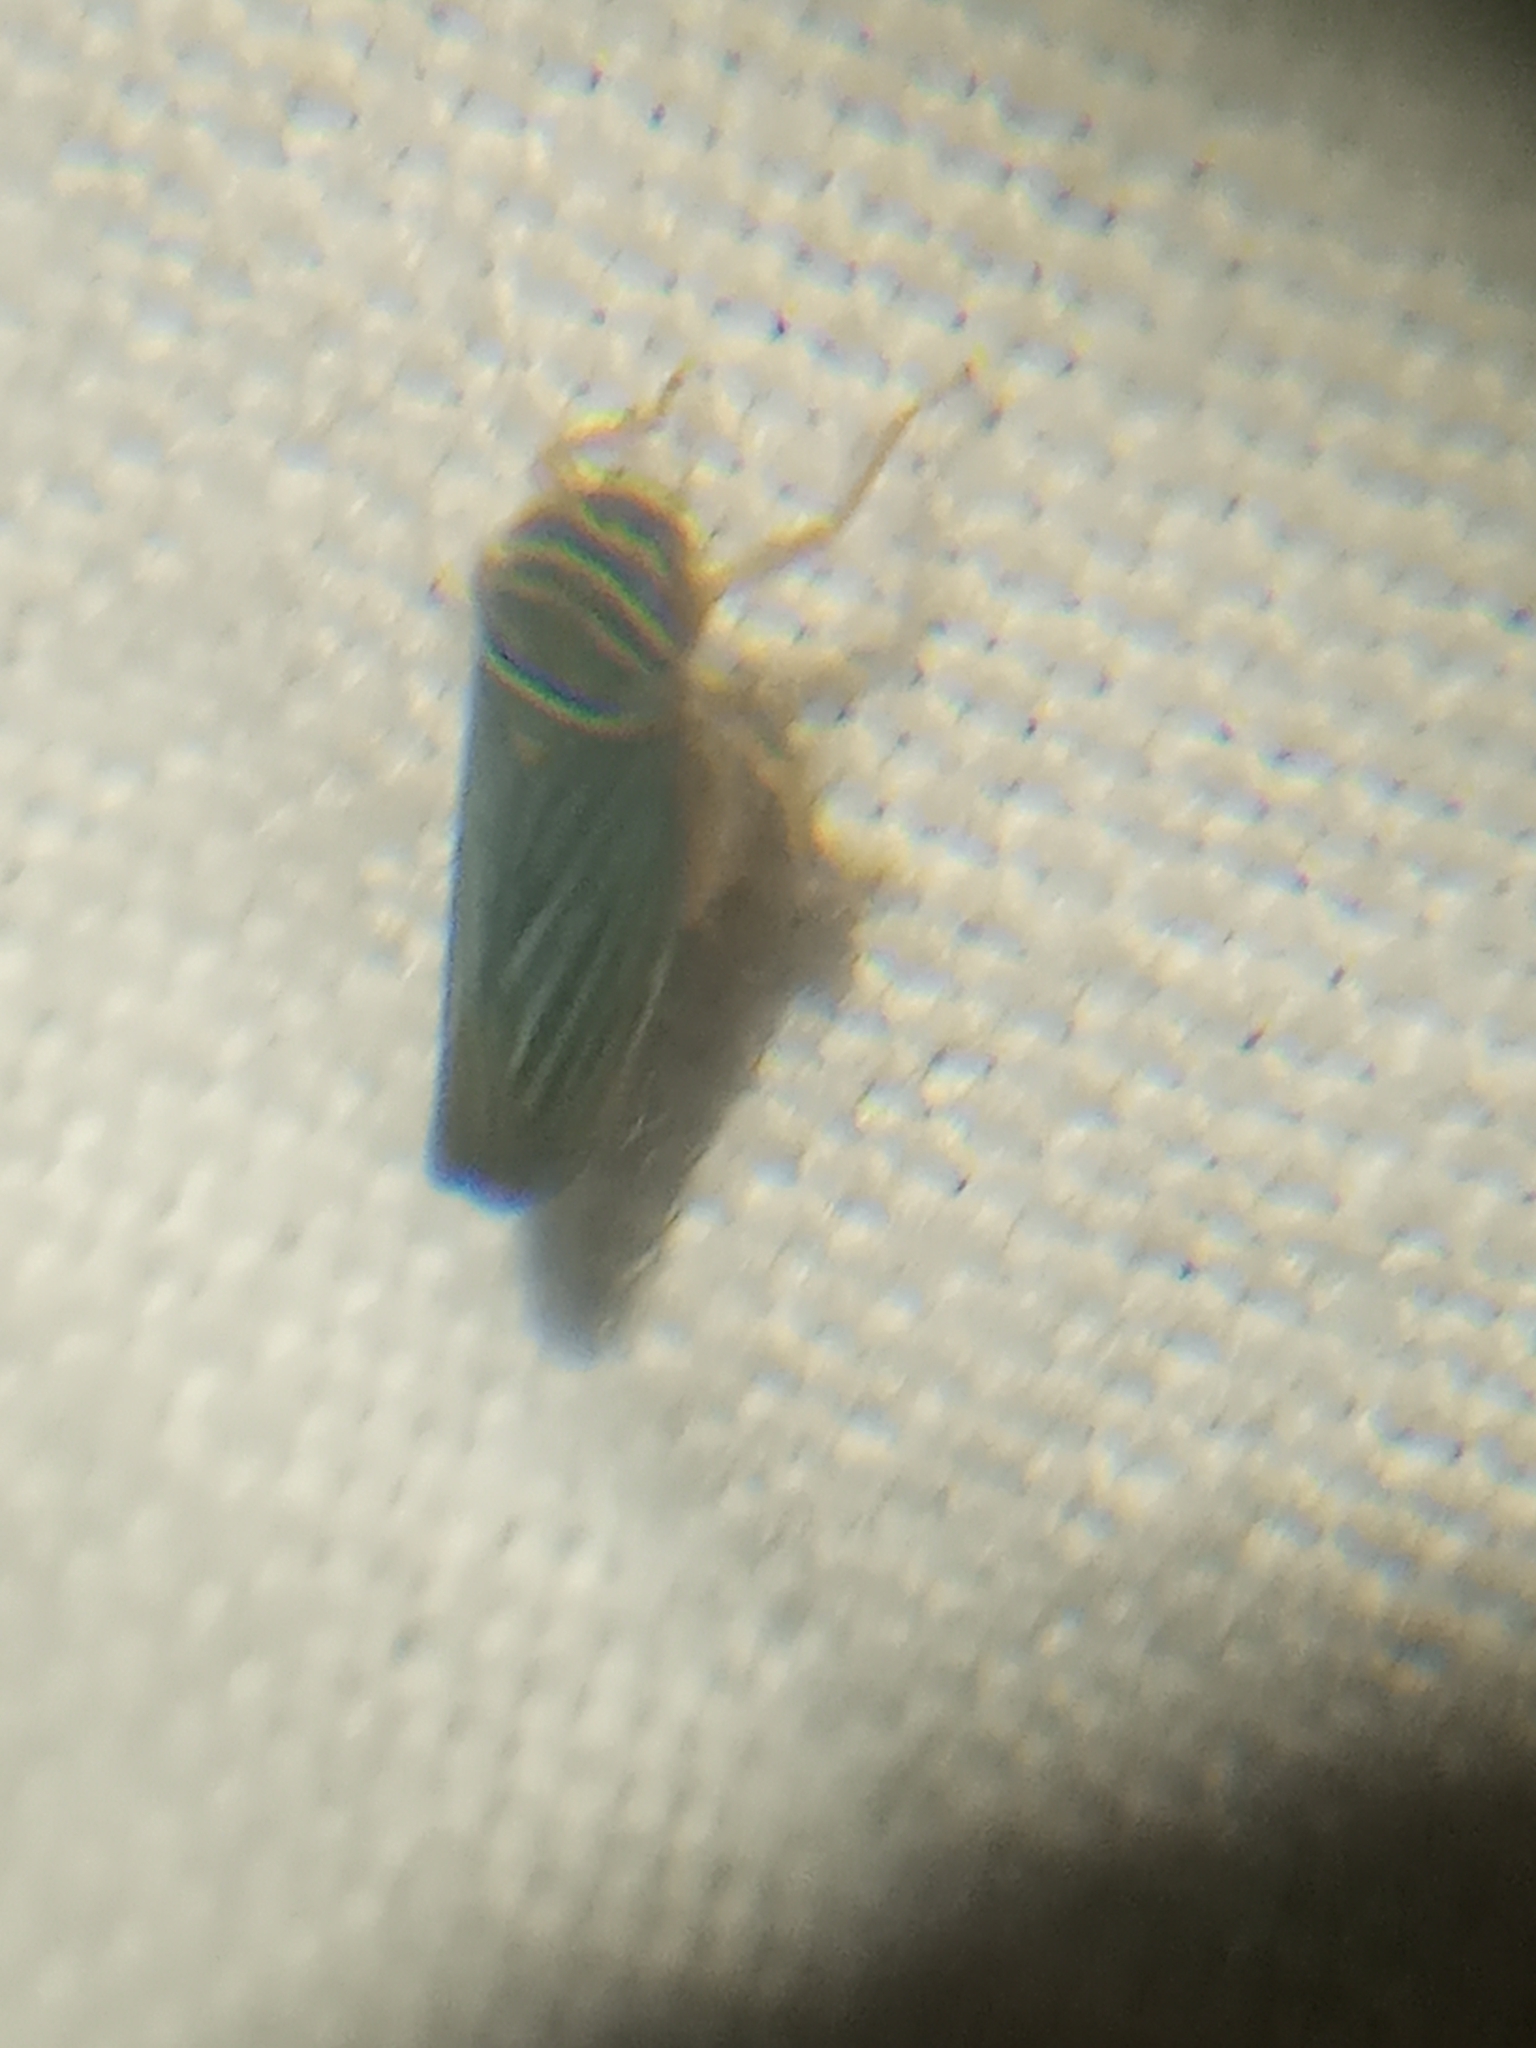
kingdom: Animalia
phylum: Arthropoda
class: Insecta
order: Hemiptera
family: Cicadellidae
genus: Tylozygus
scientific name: Tylozygus bifidus
